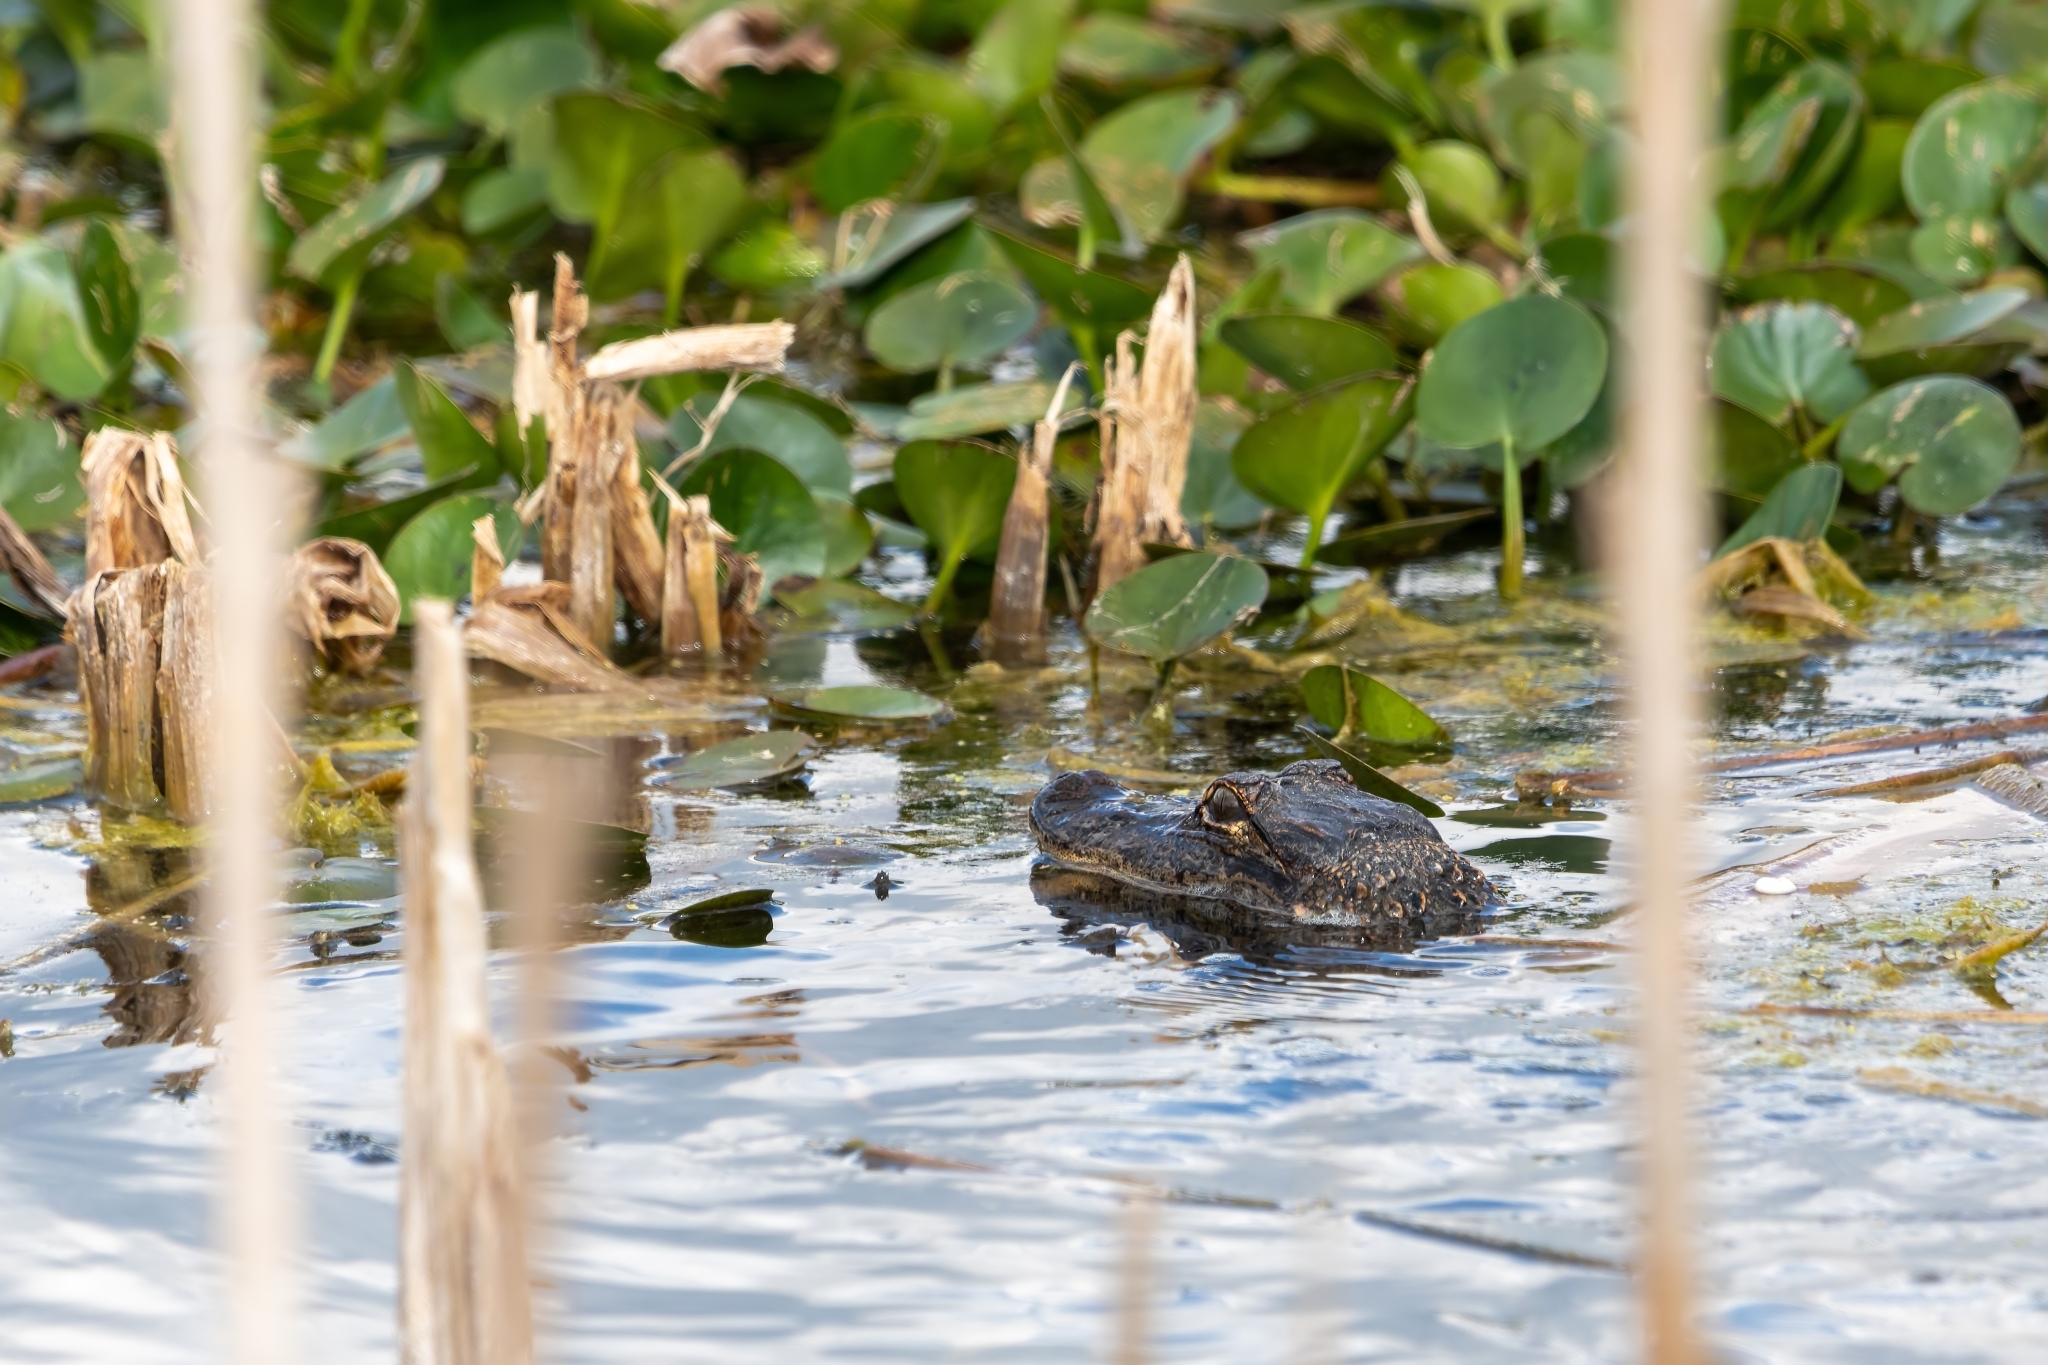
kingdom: Animalia
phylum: Chordata
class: Crocodylia
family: Alligatoridae
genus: Alligator
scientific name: Alligator mississippiensis
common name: American alligator
